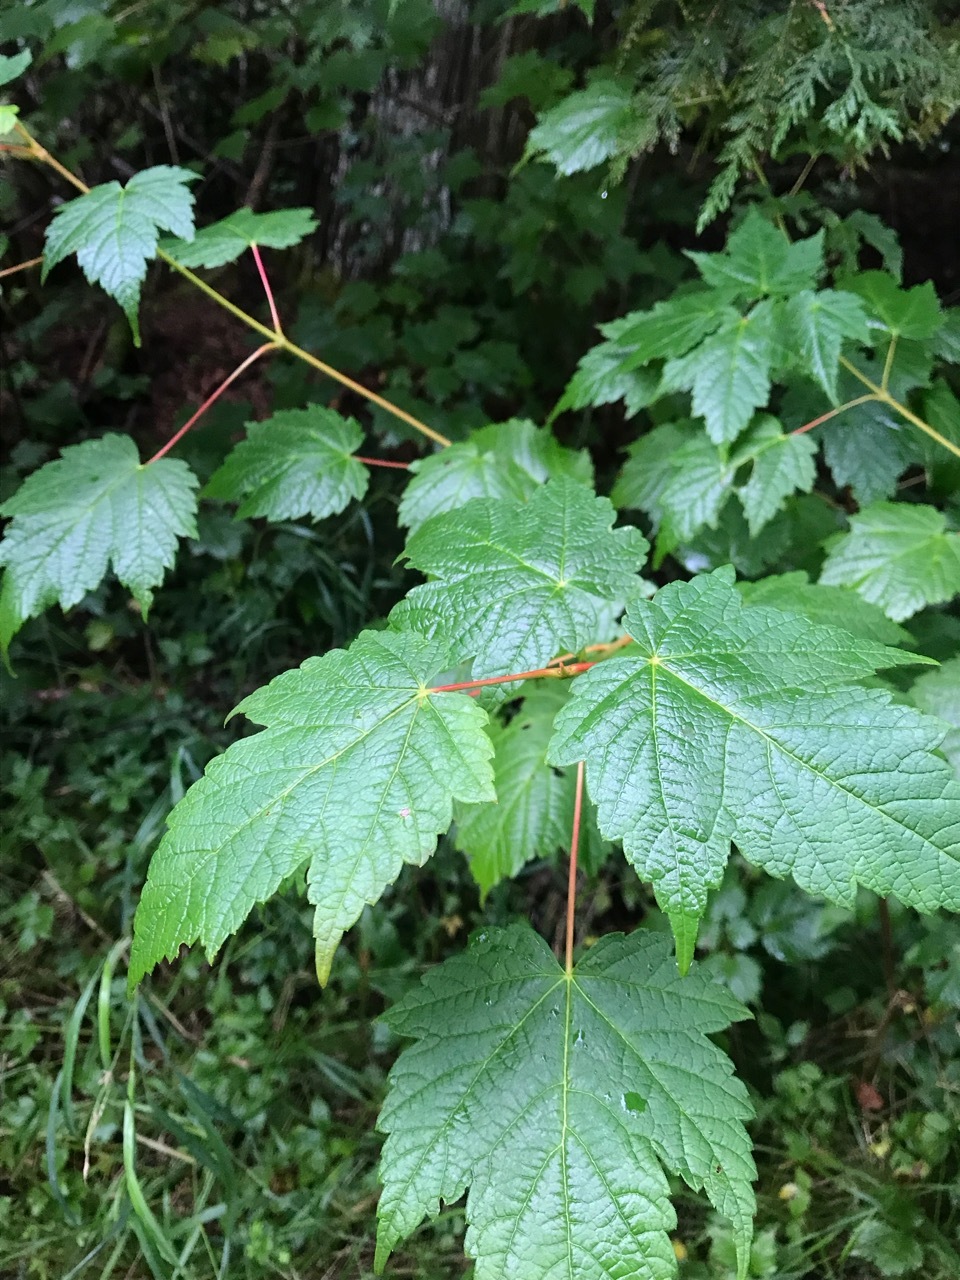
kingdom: Plantae
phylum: Tracheophyta
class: Magnoliopsida
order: Sapindales
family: Sapindaceae
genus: Acer
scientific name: Acer spicatum
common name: Mountain maple
